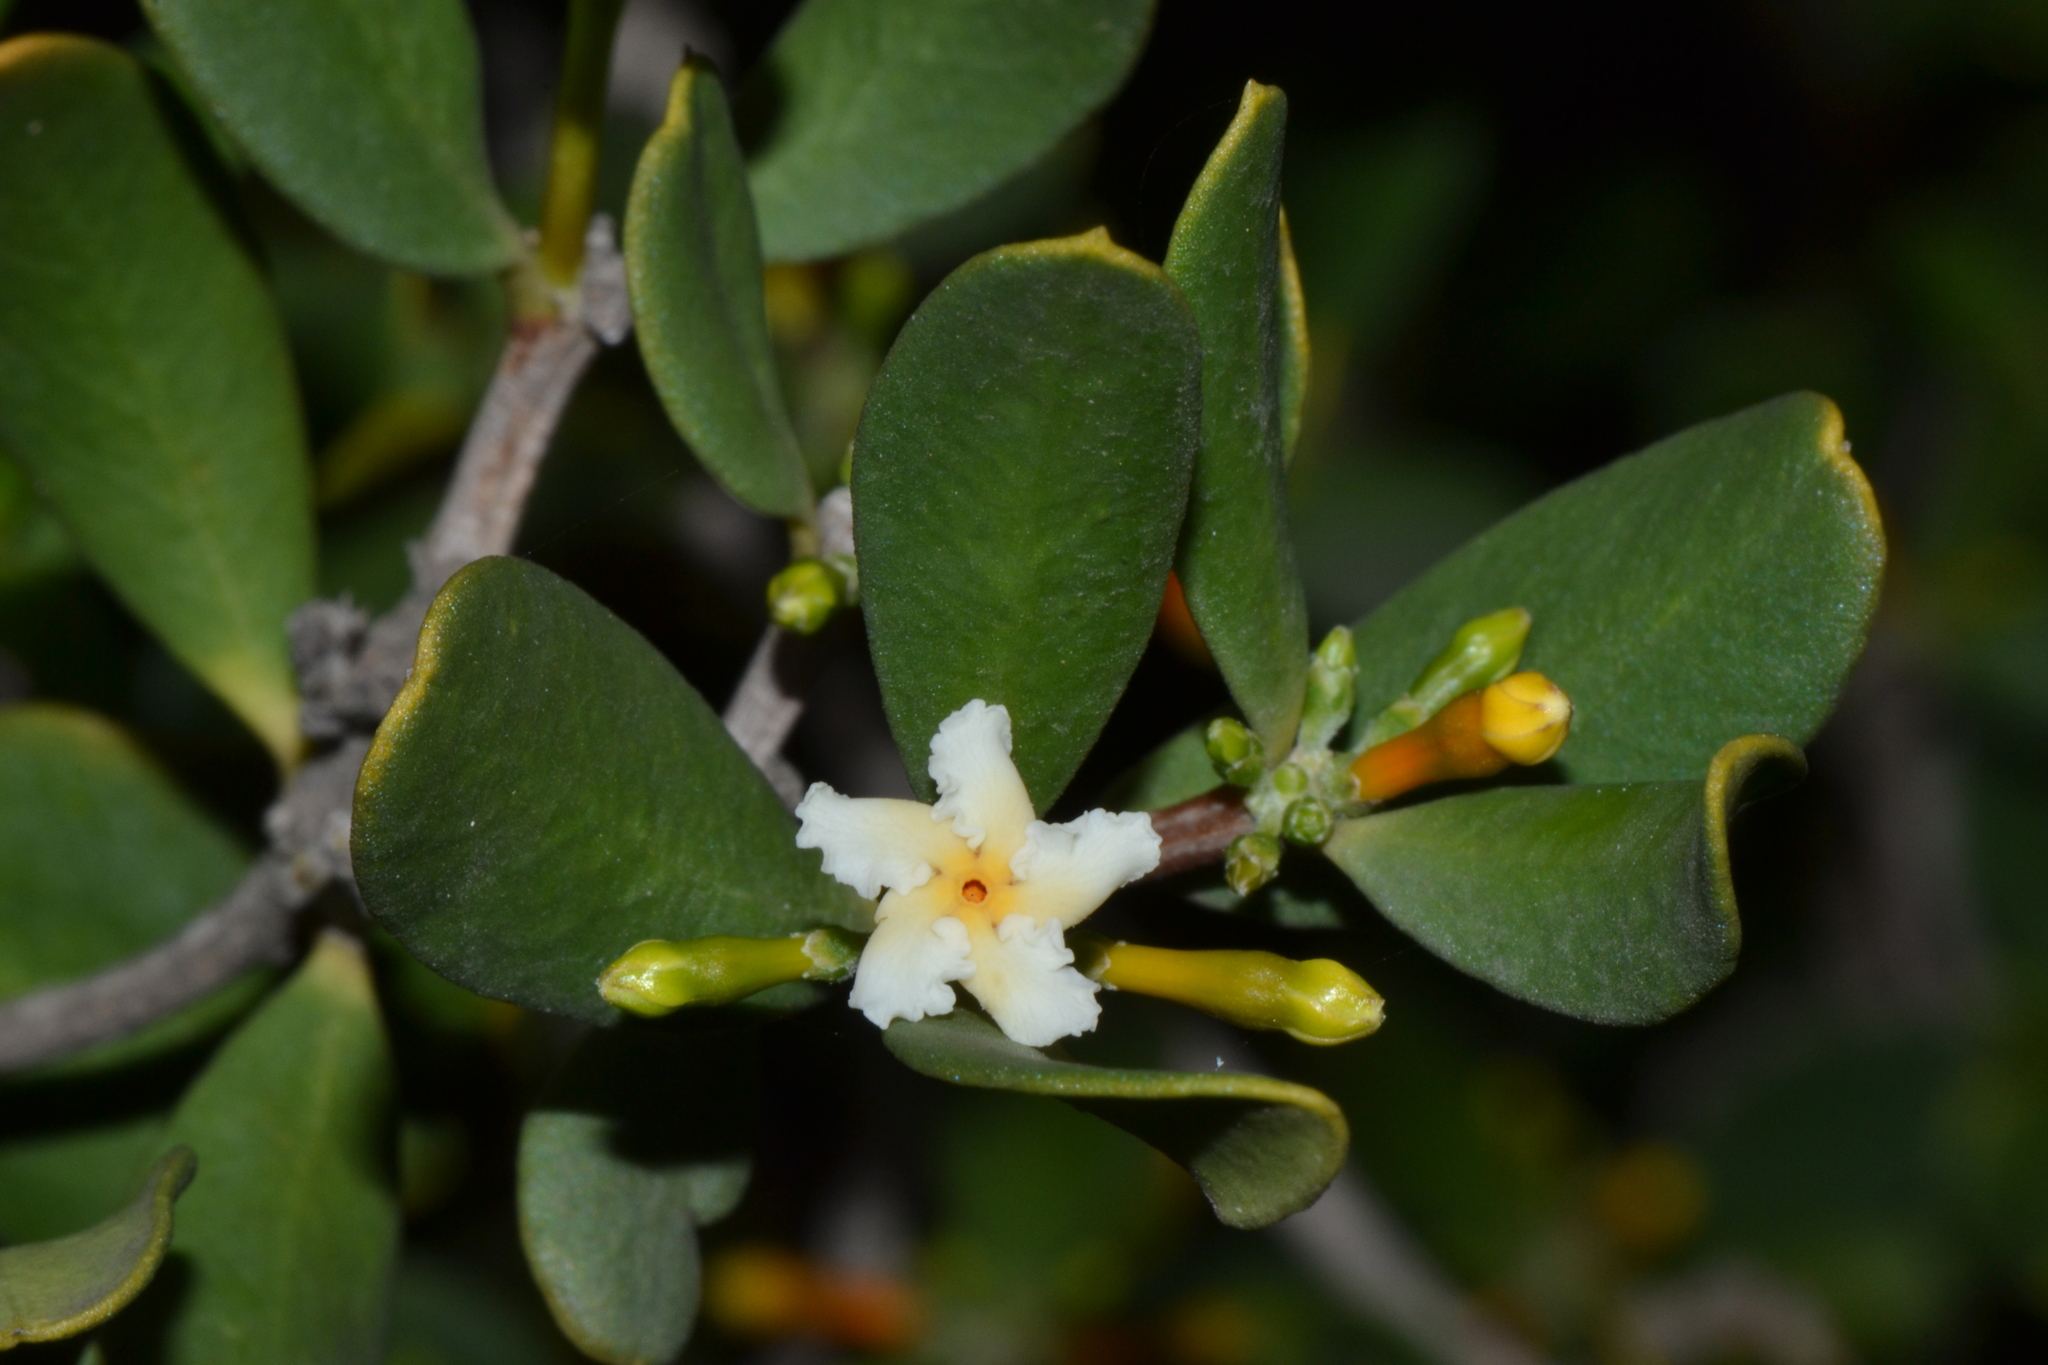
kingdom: Plantae
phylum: Tracheophyta
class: Magnoliopsida
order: Gentianales
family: Apocynaceae
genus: Alyxia
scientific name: Alyxia buxifolia
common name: Dysentery-bush
